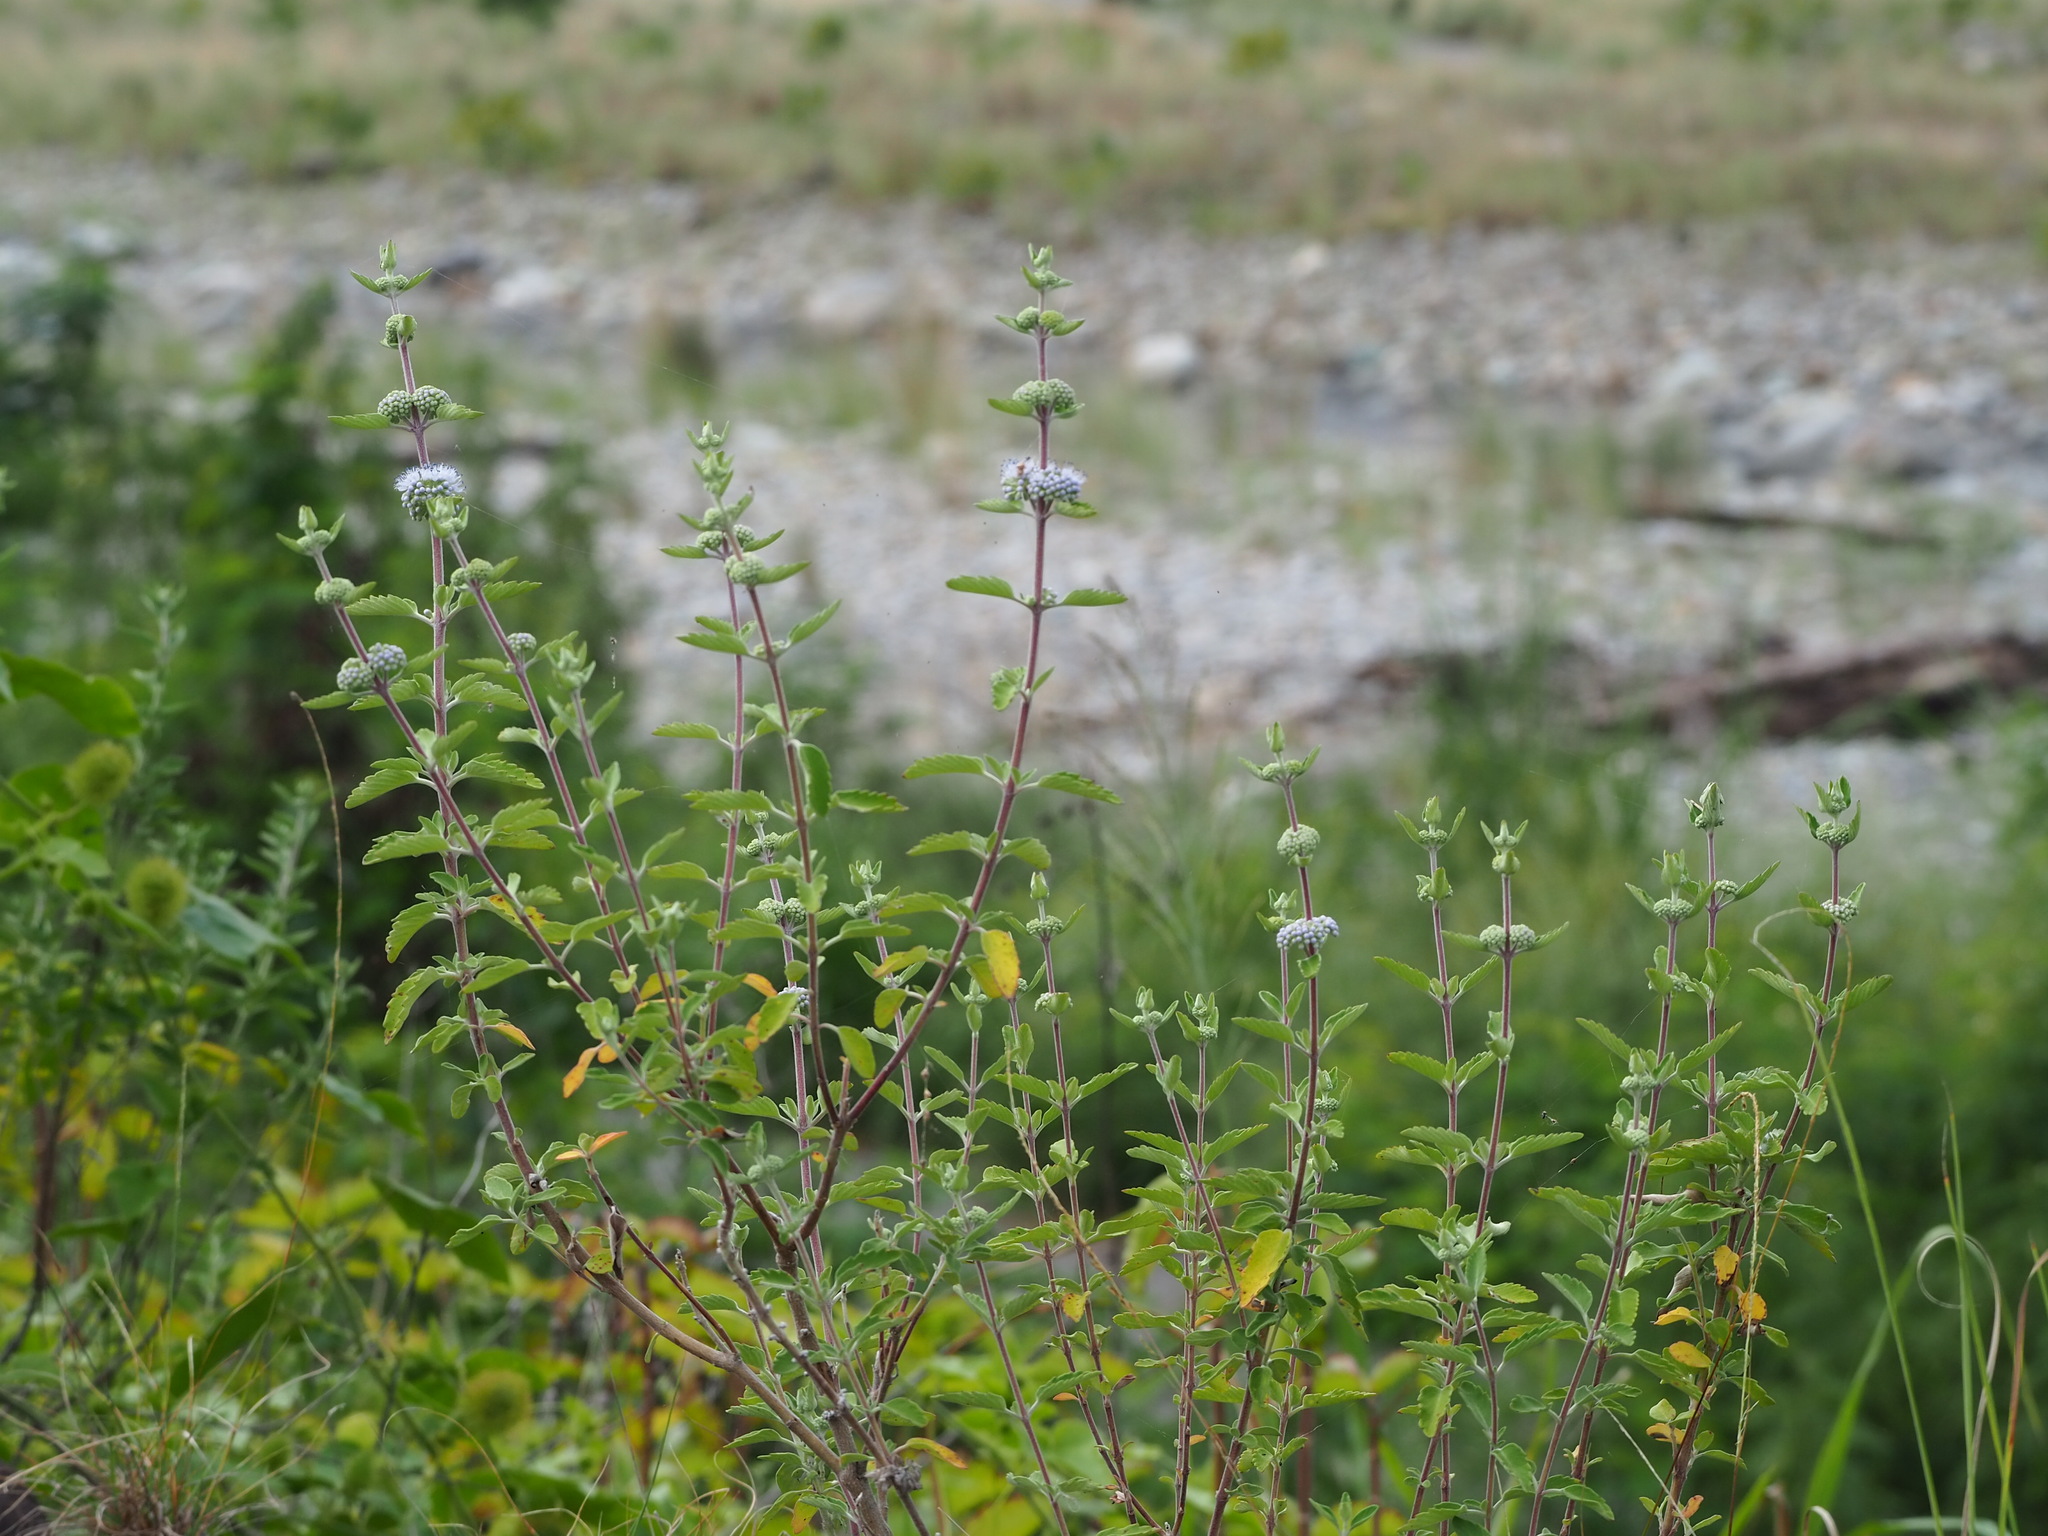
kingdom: Plantae
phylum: Tracheophyta
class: Magnoliopsida
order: Lamiales
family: Lamiaceae
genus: Caryopteris
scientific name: Caryopteris incana
